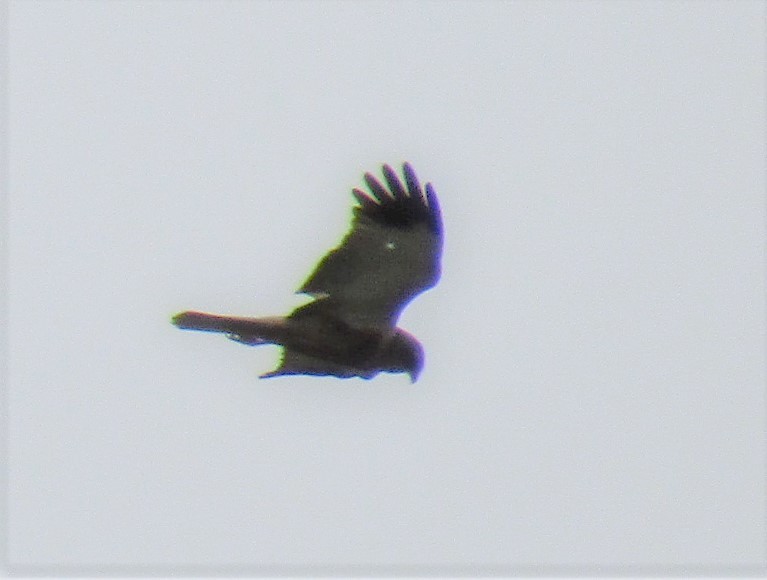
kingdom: Animalia
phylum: Chordata
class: Aves
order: Accipitriformes
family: Accipitridae
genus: Circus
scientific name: Circus aeruginosus
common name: Western marsh harrier
